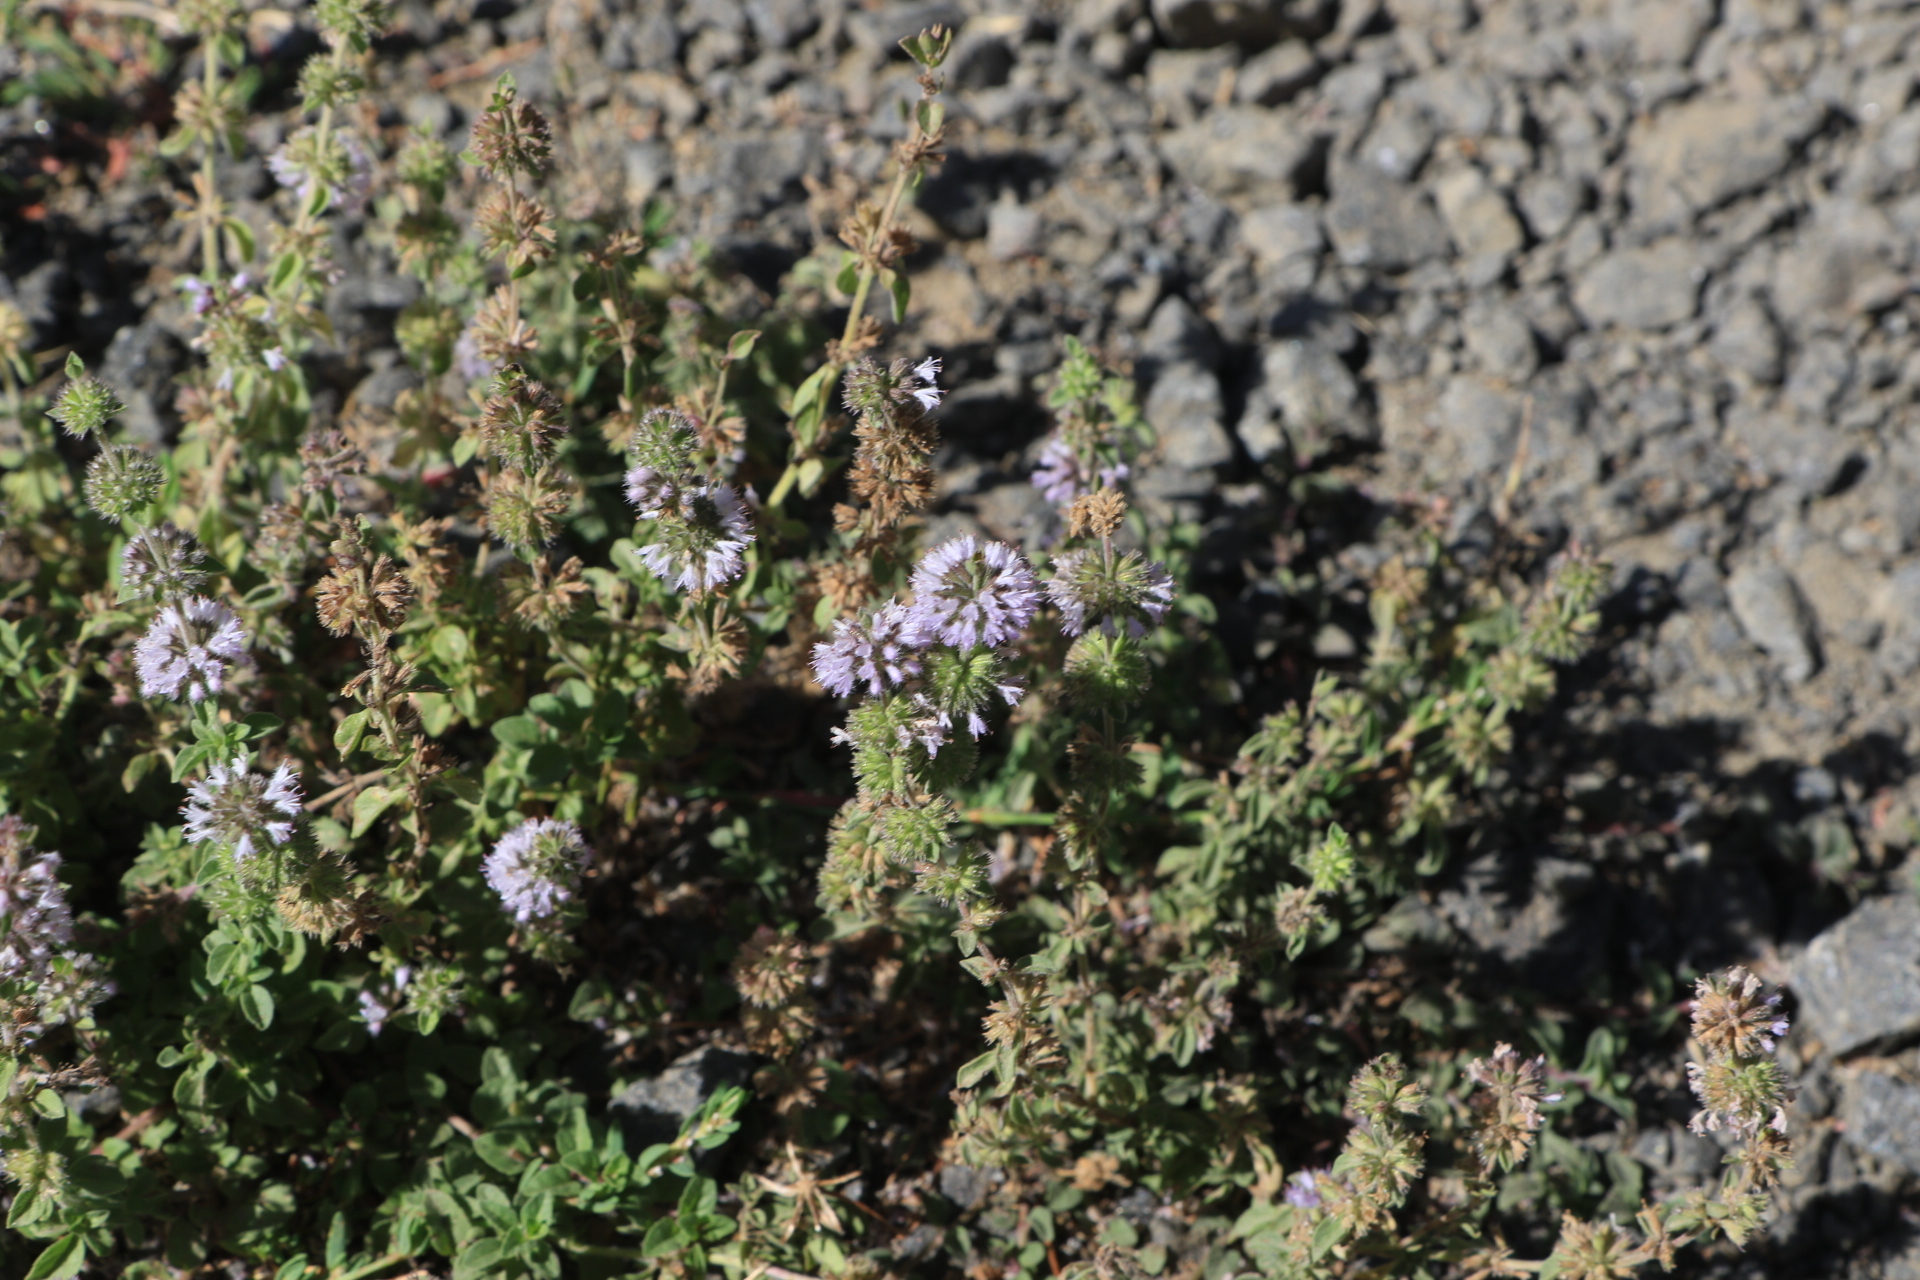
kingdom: Plantae
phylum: Tracheophyta
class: Magnoliopsida
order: Lamiales
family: Lamiaceae
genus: Mentha
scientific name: Mentha pulegium
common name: Pennyroyal
